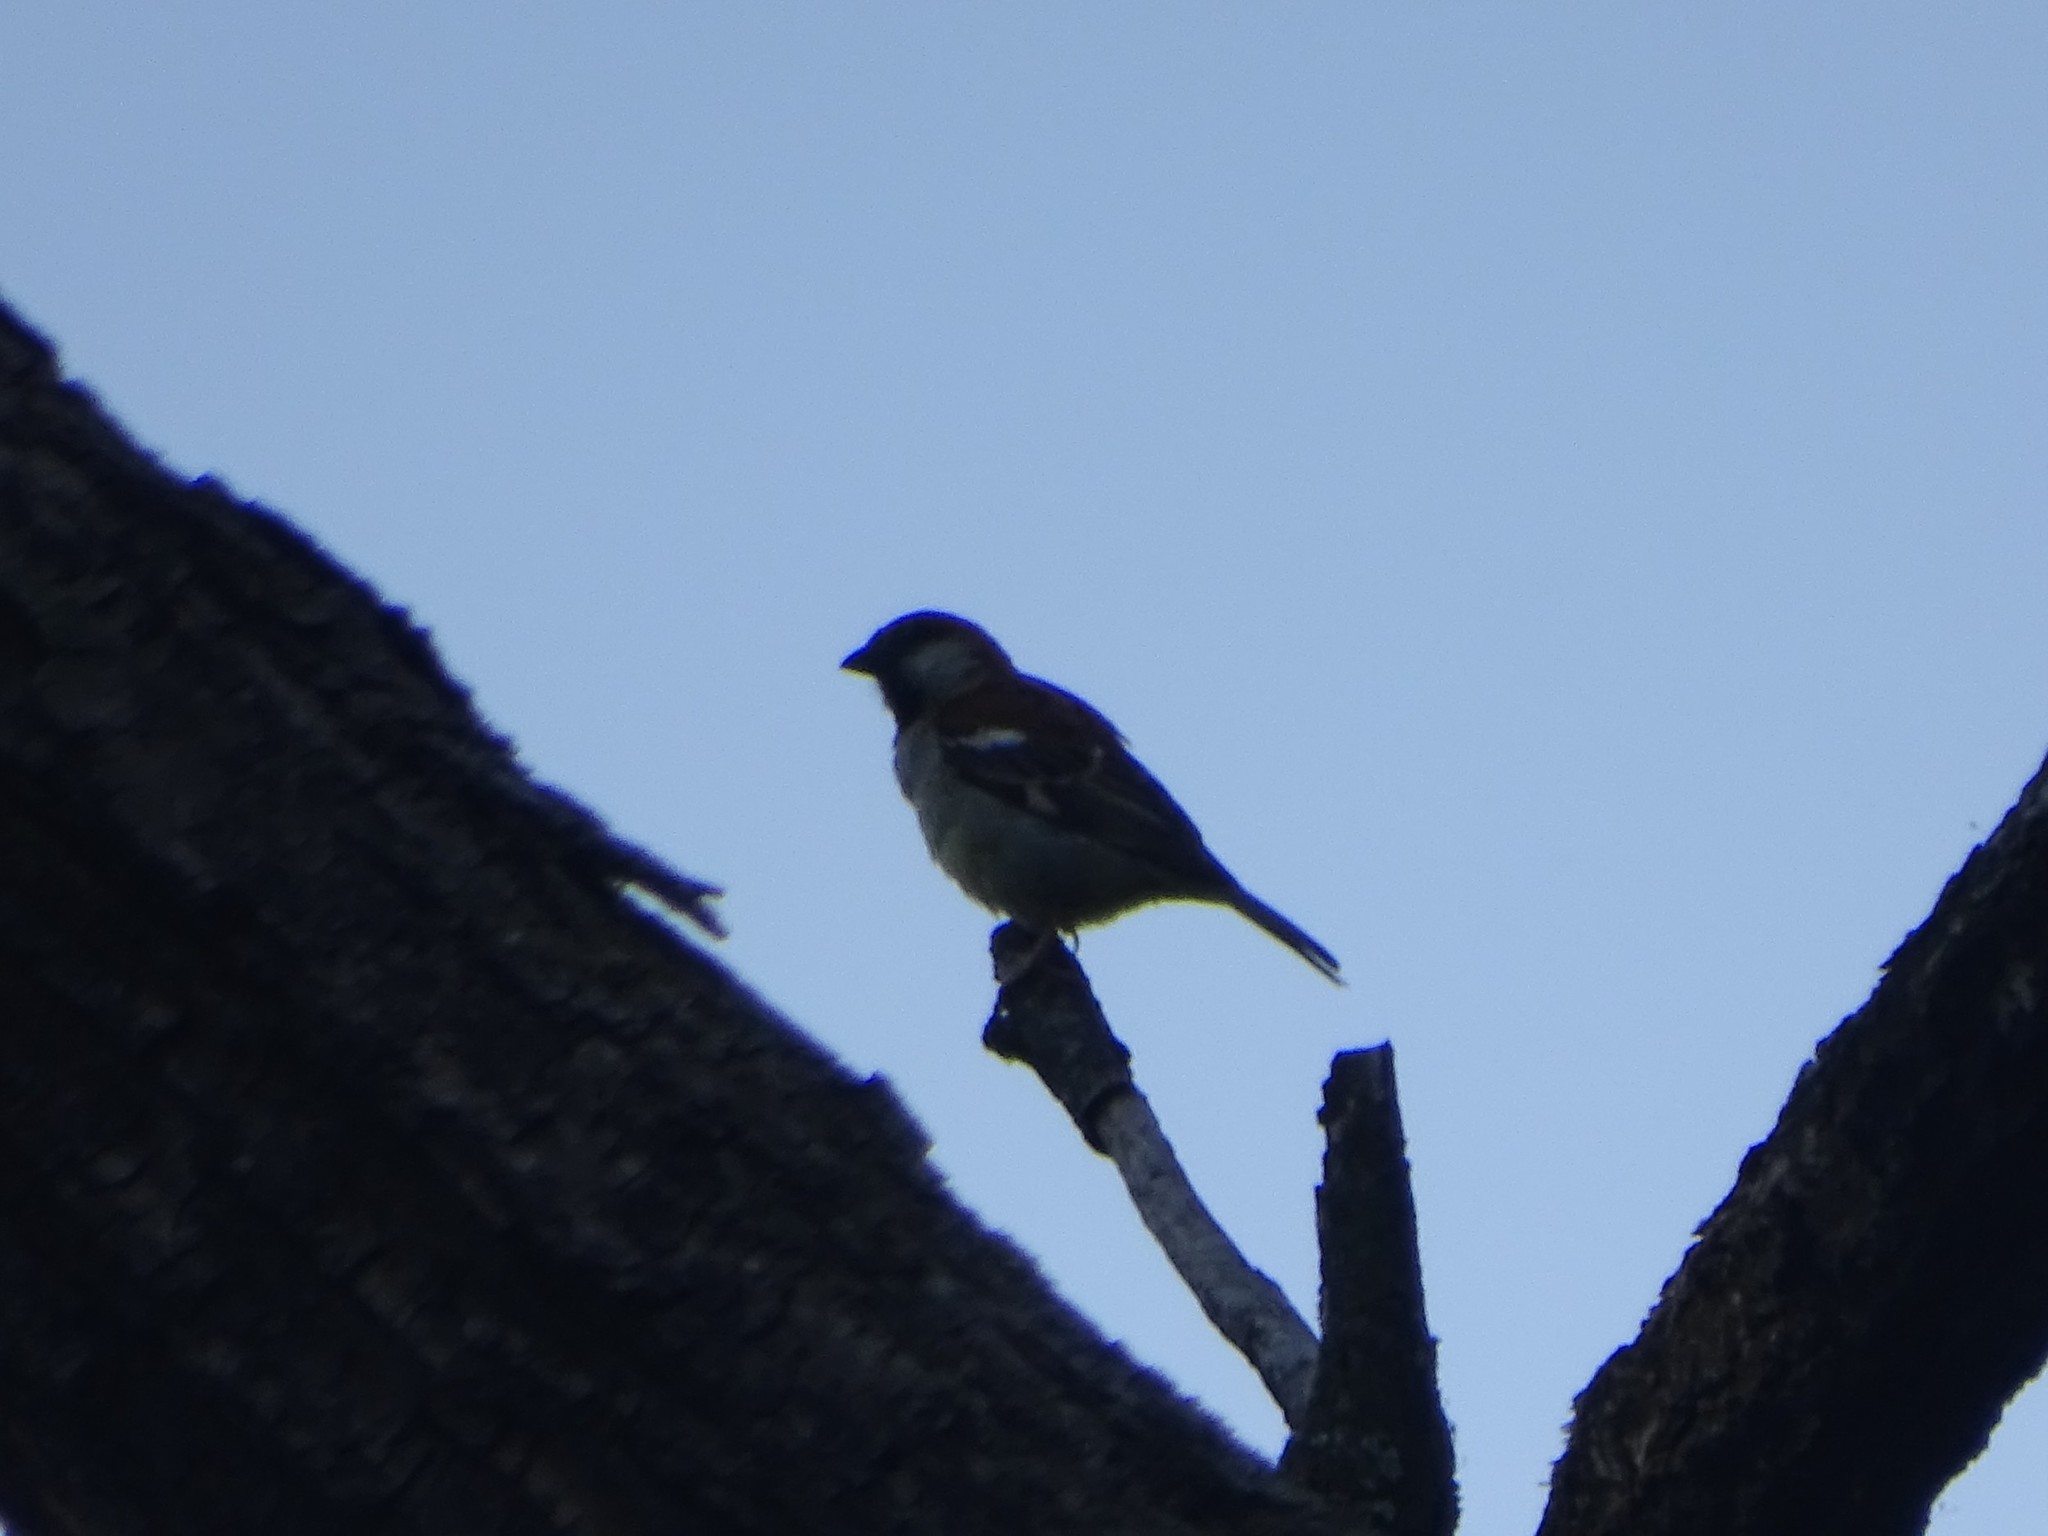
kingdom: Animalia
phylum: Chordata
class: Aves
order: Passeriformes
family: Passeridae
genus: Passer
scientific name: Passer domesticus
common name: House sparrow
